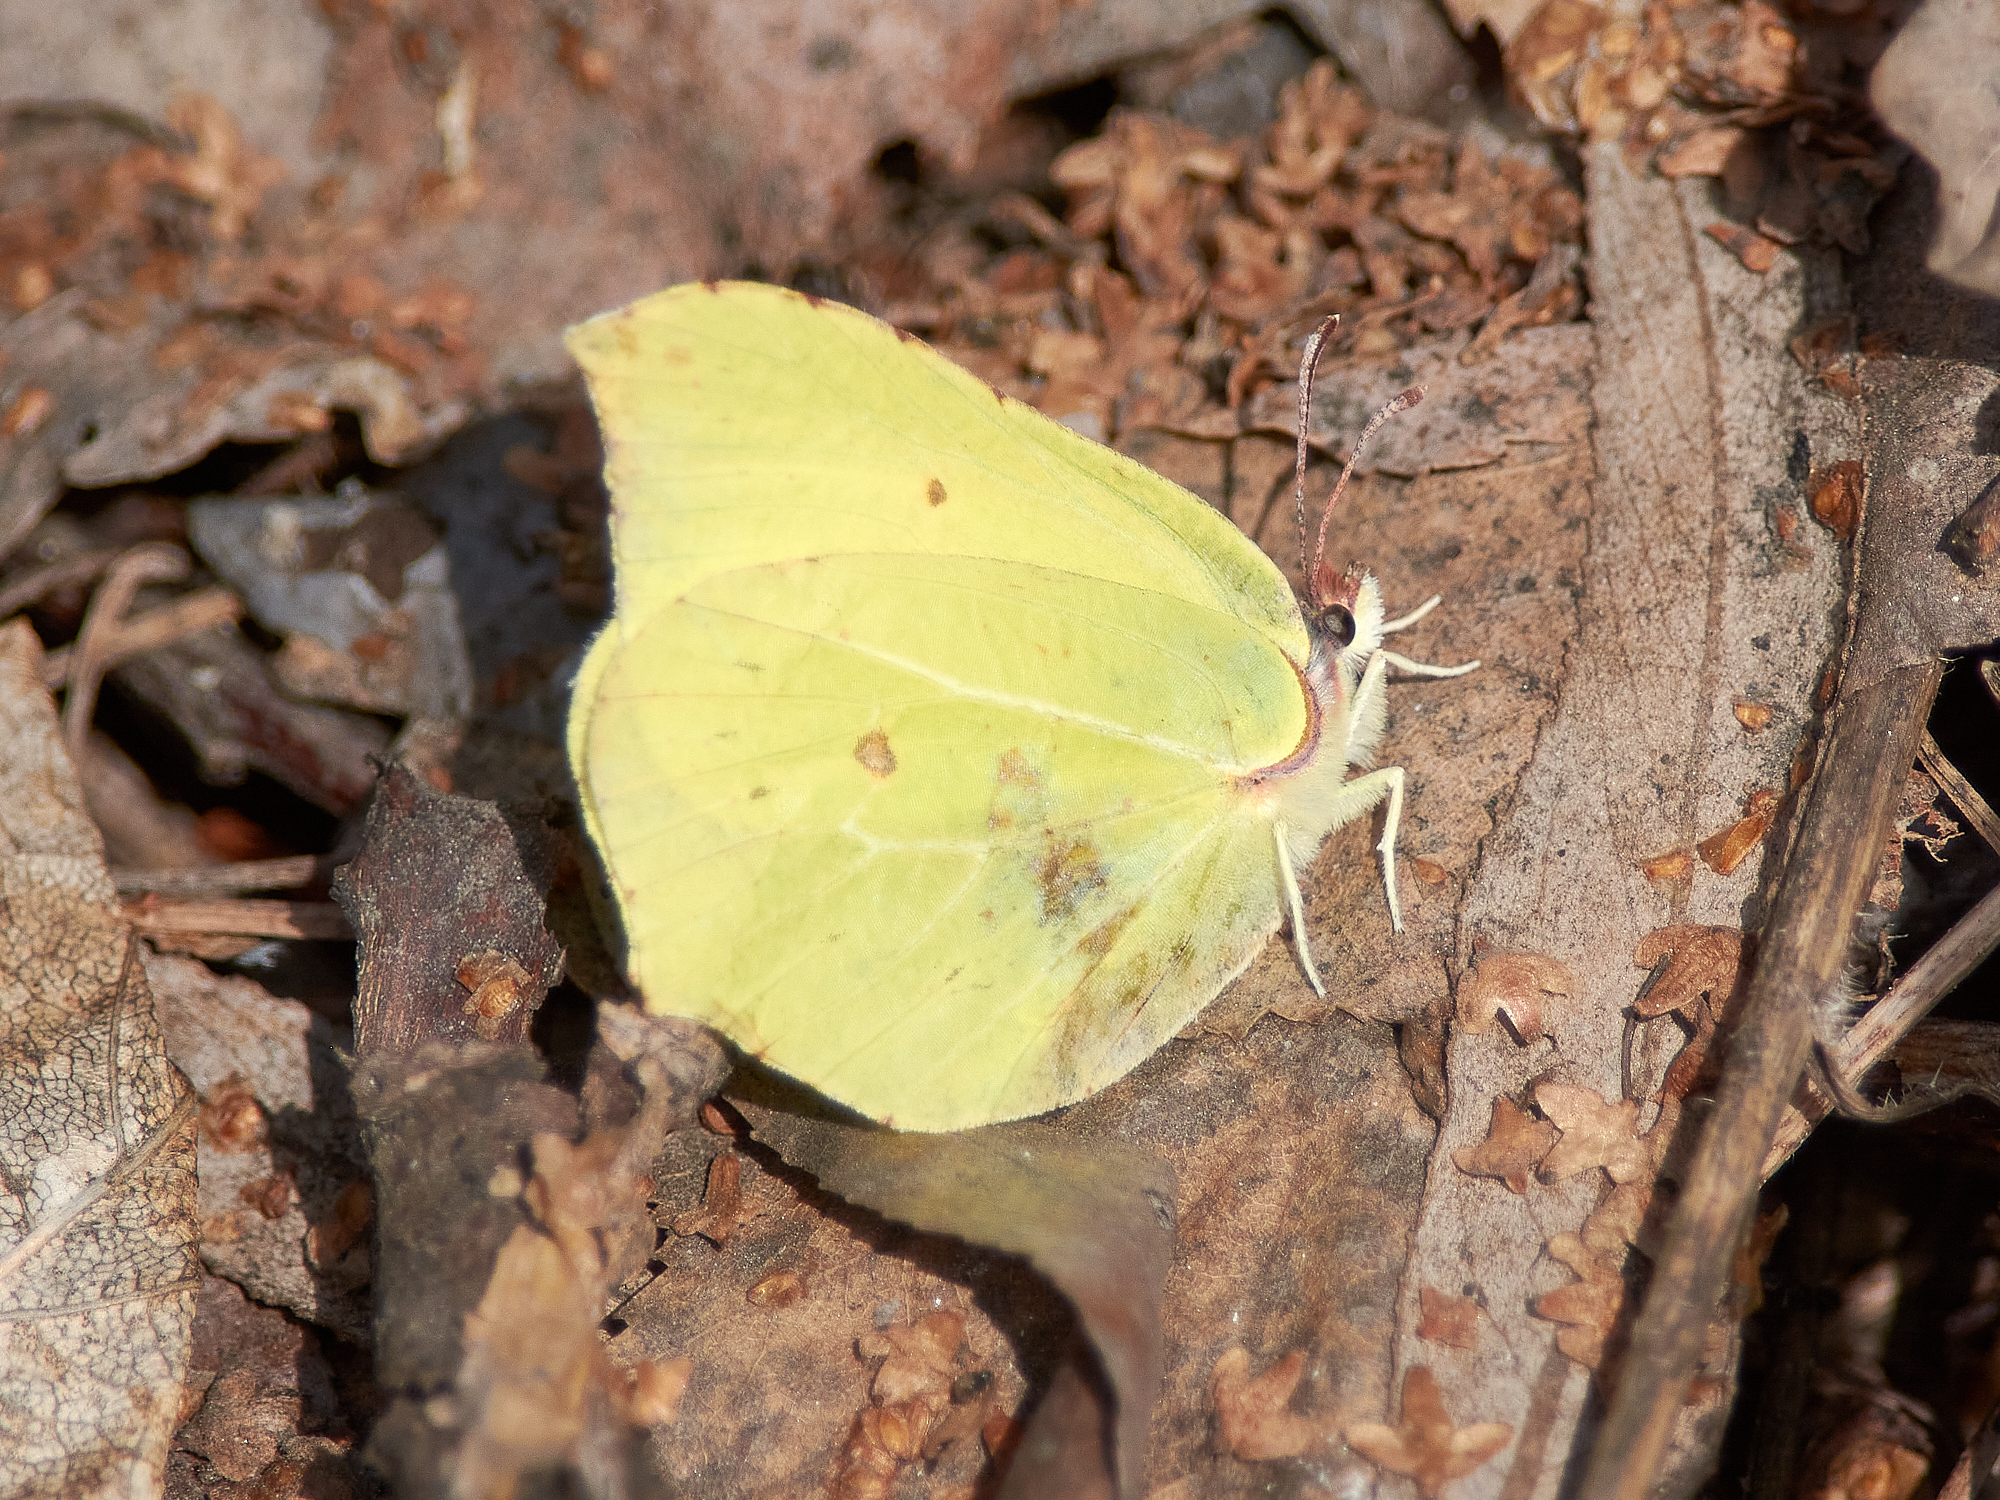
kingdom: Animalia
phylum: Arthropoda
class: Insecta
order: Lepidoptera
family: Pieridae
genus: Gonepteryx
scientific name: Gonepteryx rhamni
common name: Brimstone
